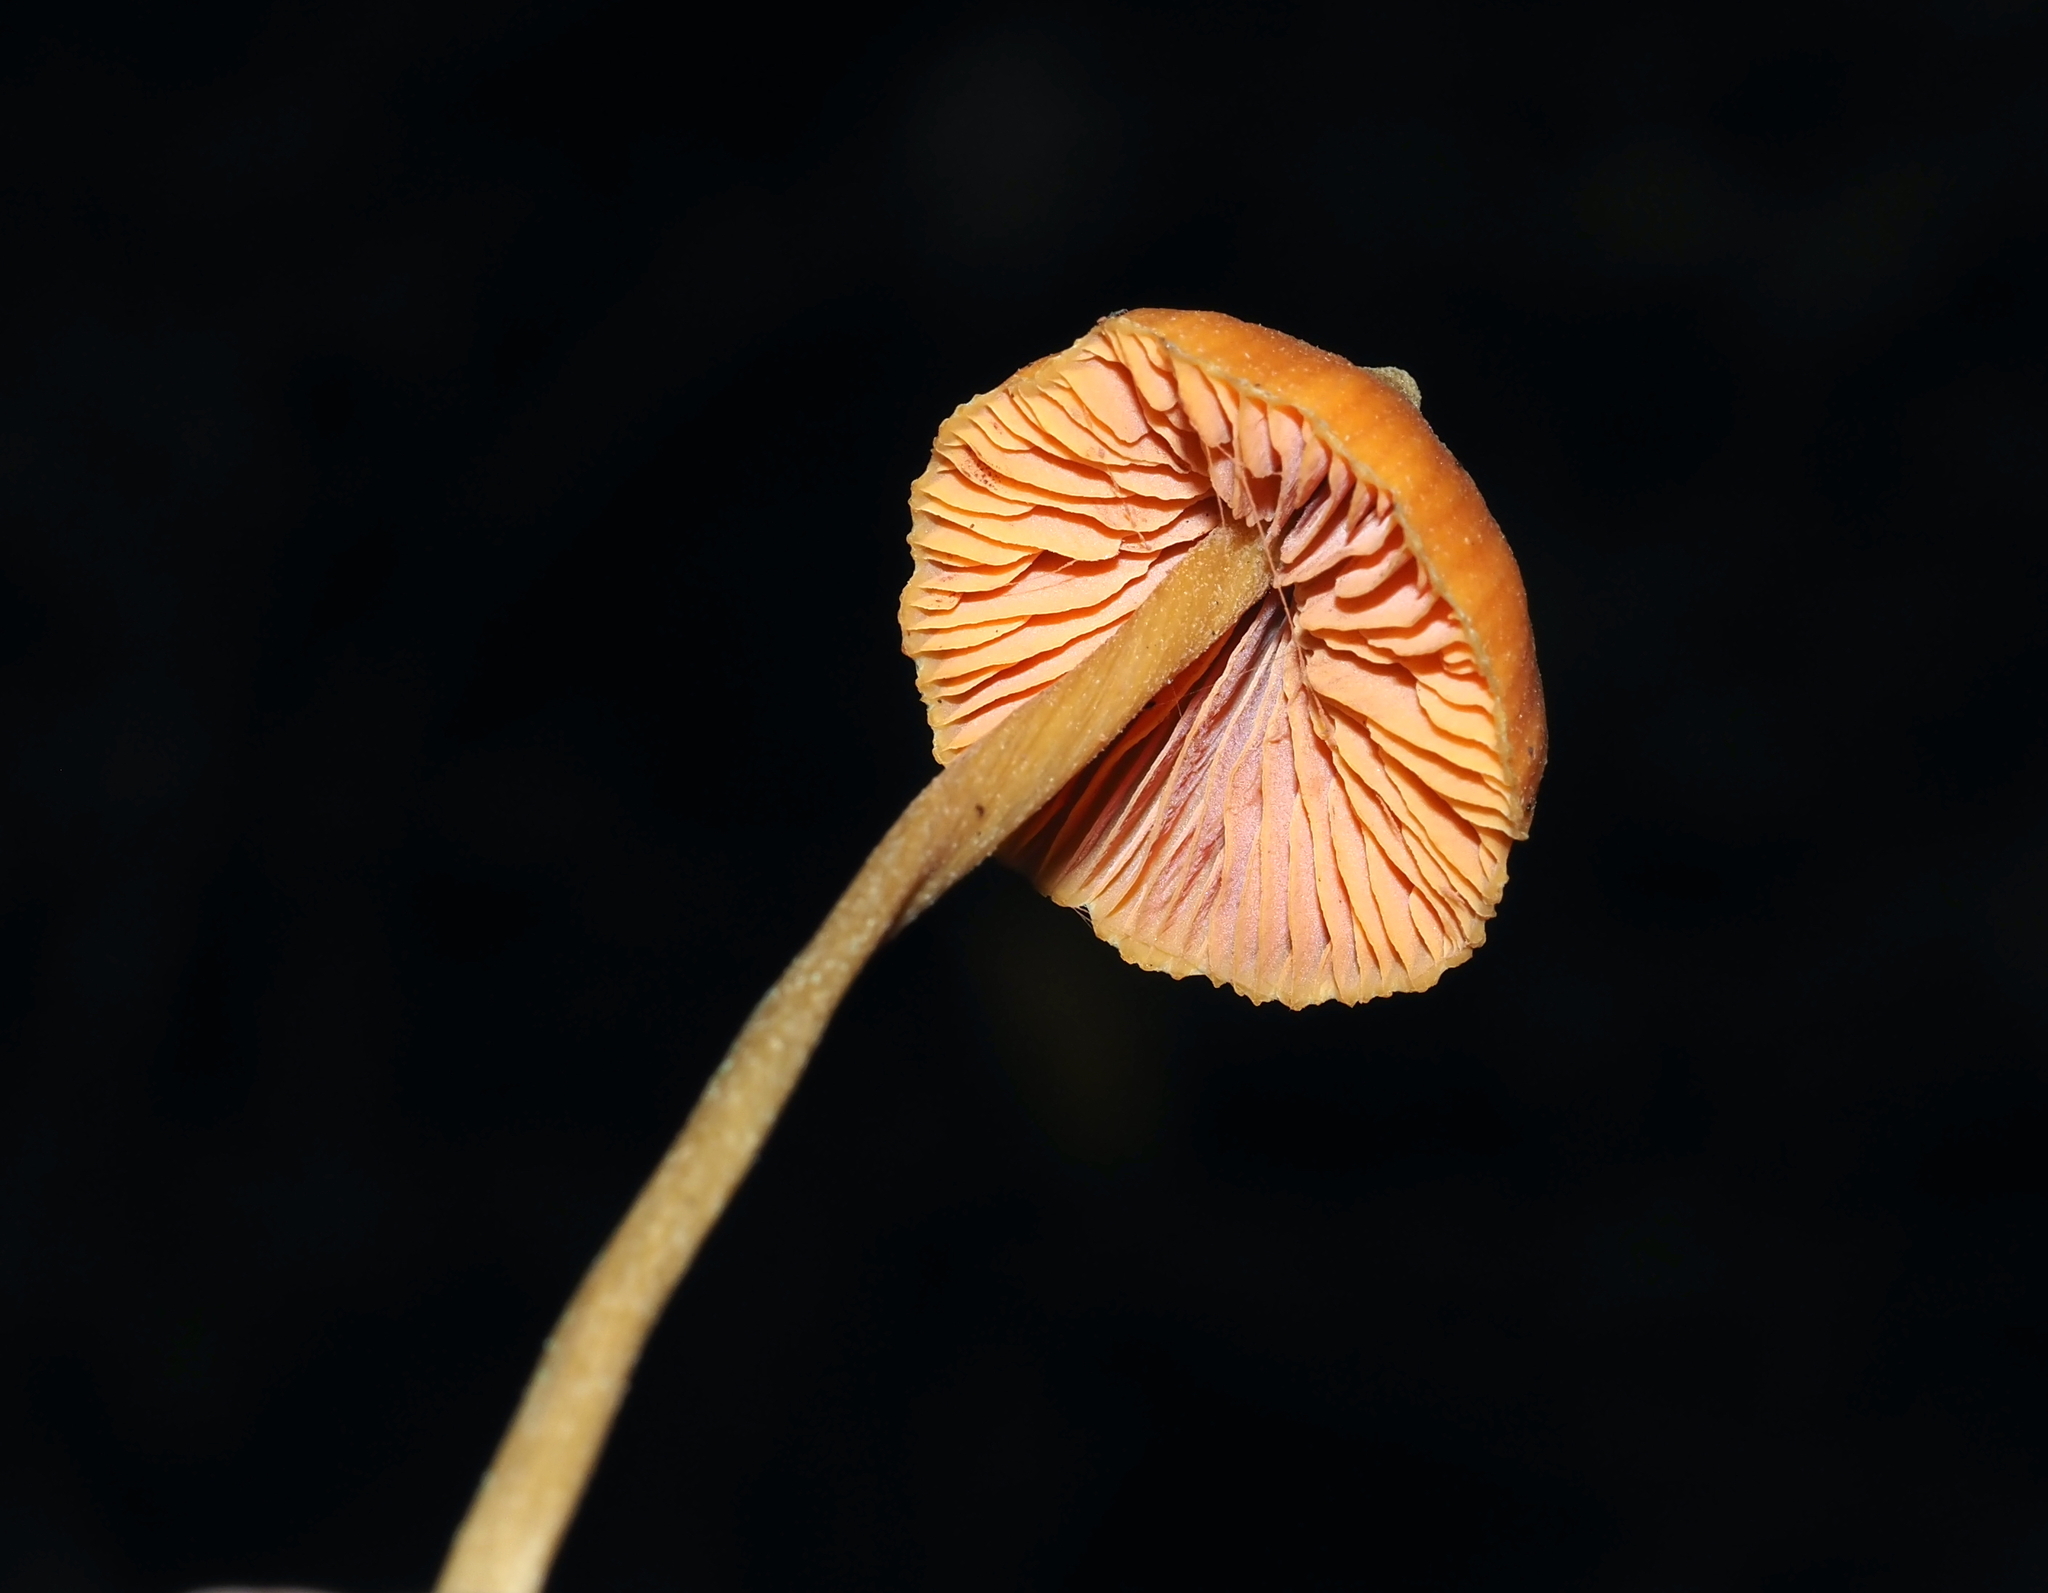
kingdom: Fungi
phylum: Basidiomycota
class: Agaricomycetes
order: Agaricales
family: Entolomataceae
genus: Entoloma
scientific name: Entoloma quadratum
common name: Salmon pinkgill
